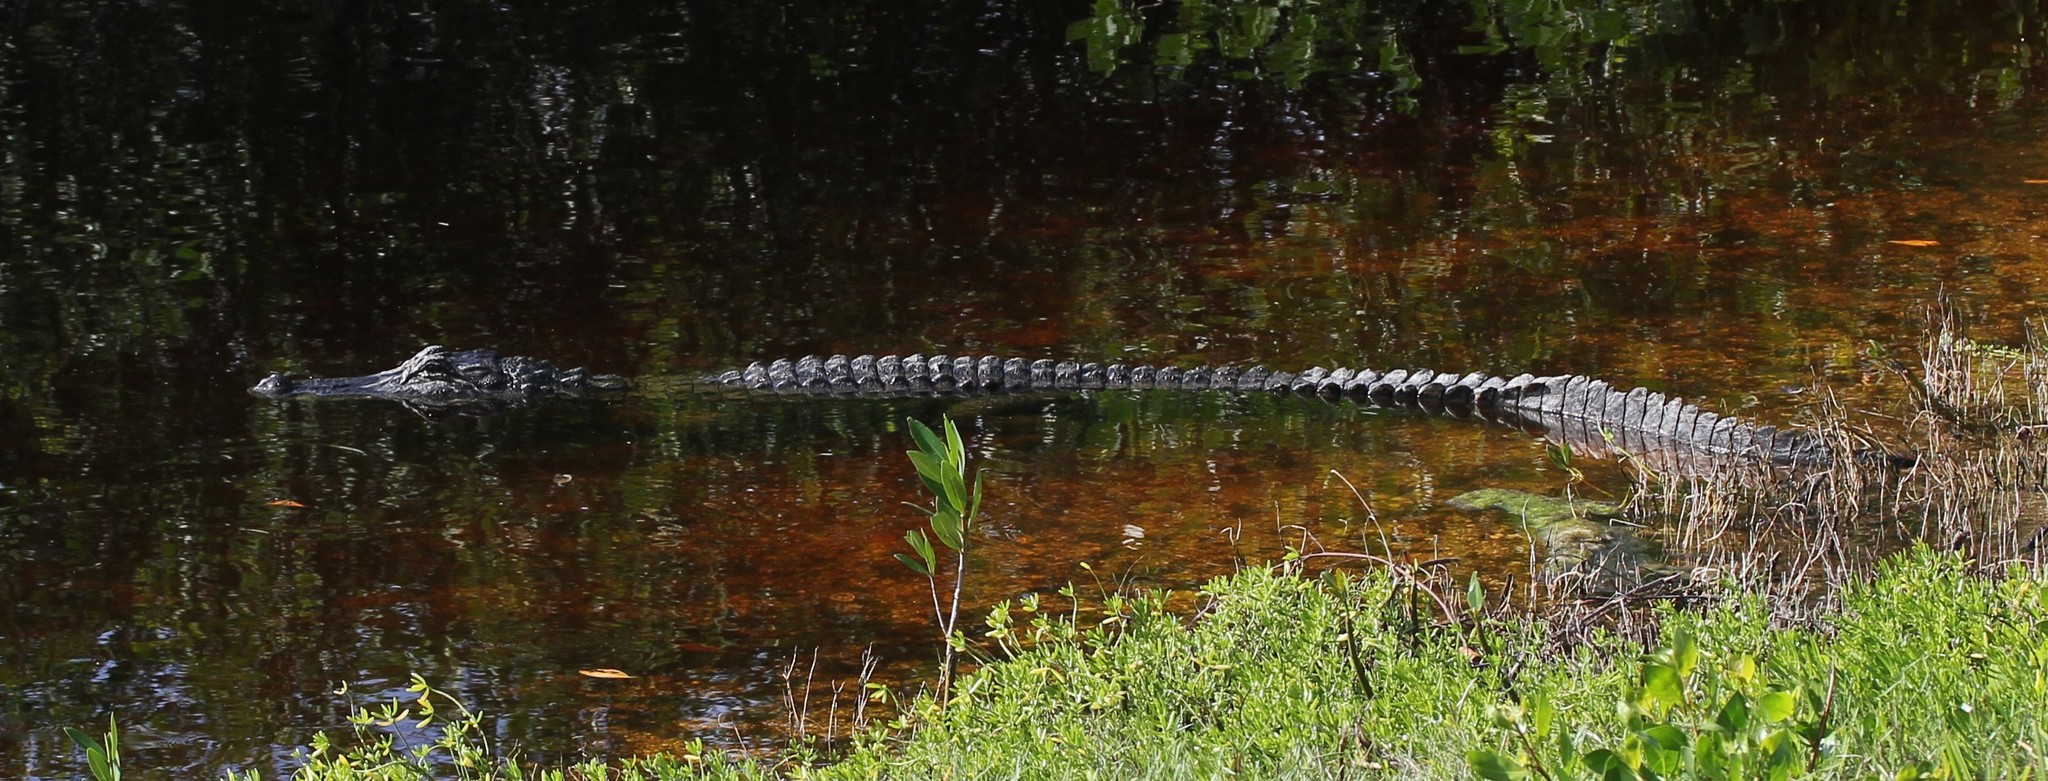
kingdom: Animalia
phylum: Chordata
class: Crocodylia
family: Alligatoridae
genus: Alligator
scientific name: Alligator mississippiensis
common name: American alligator
